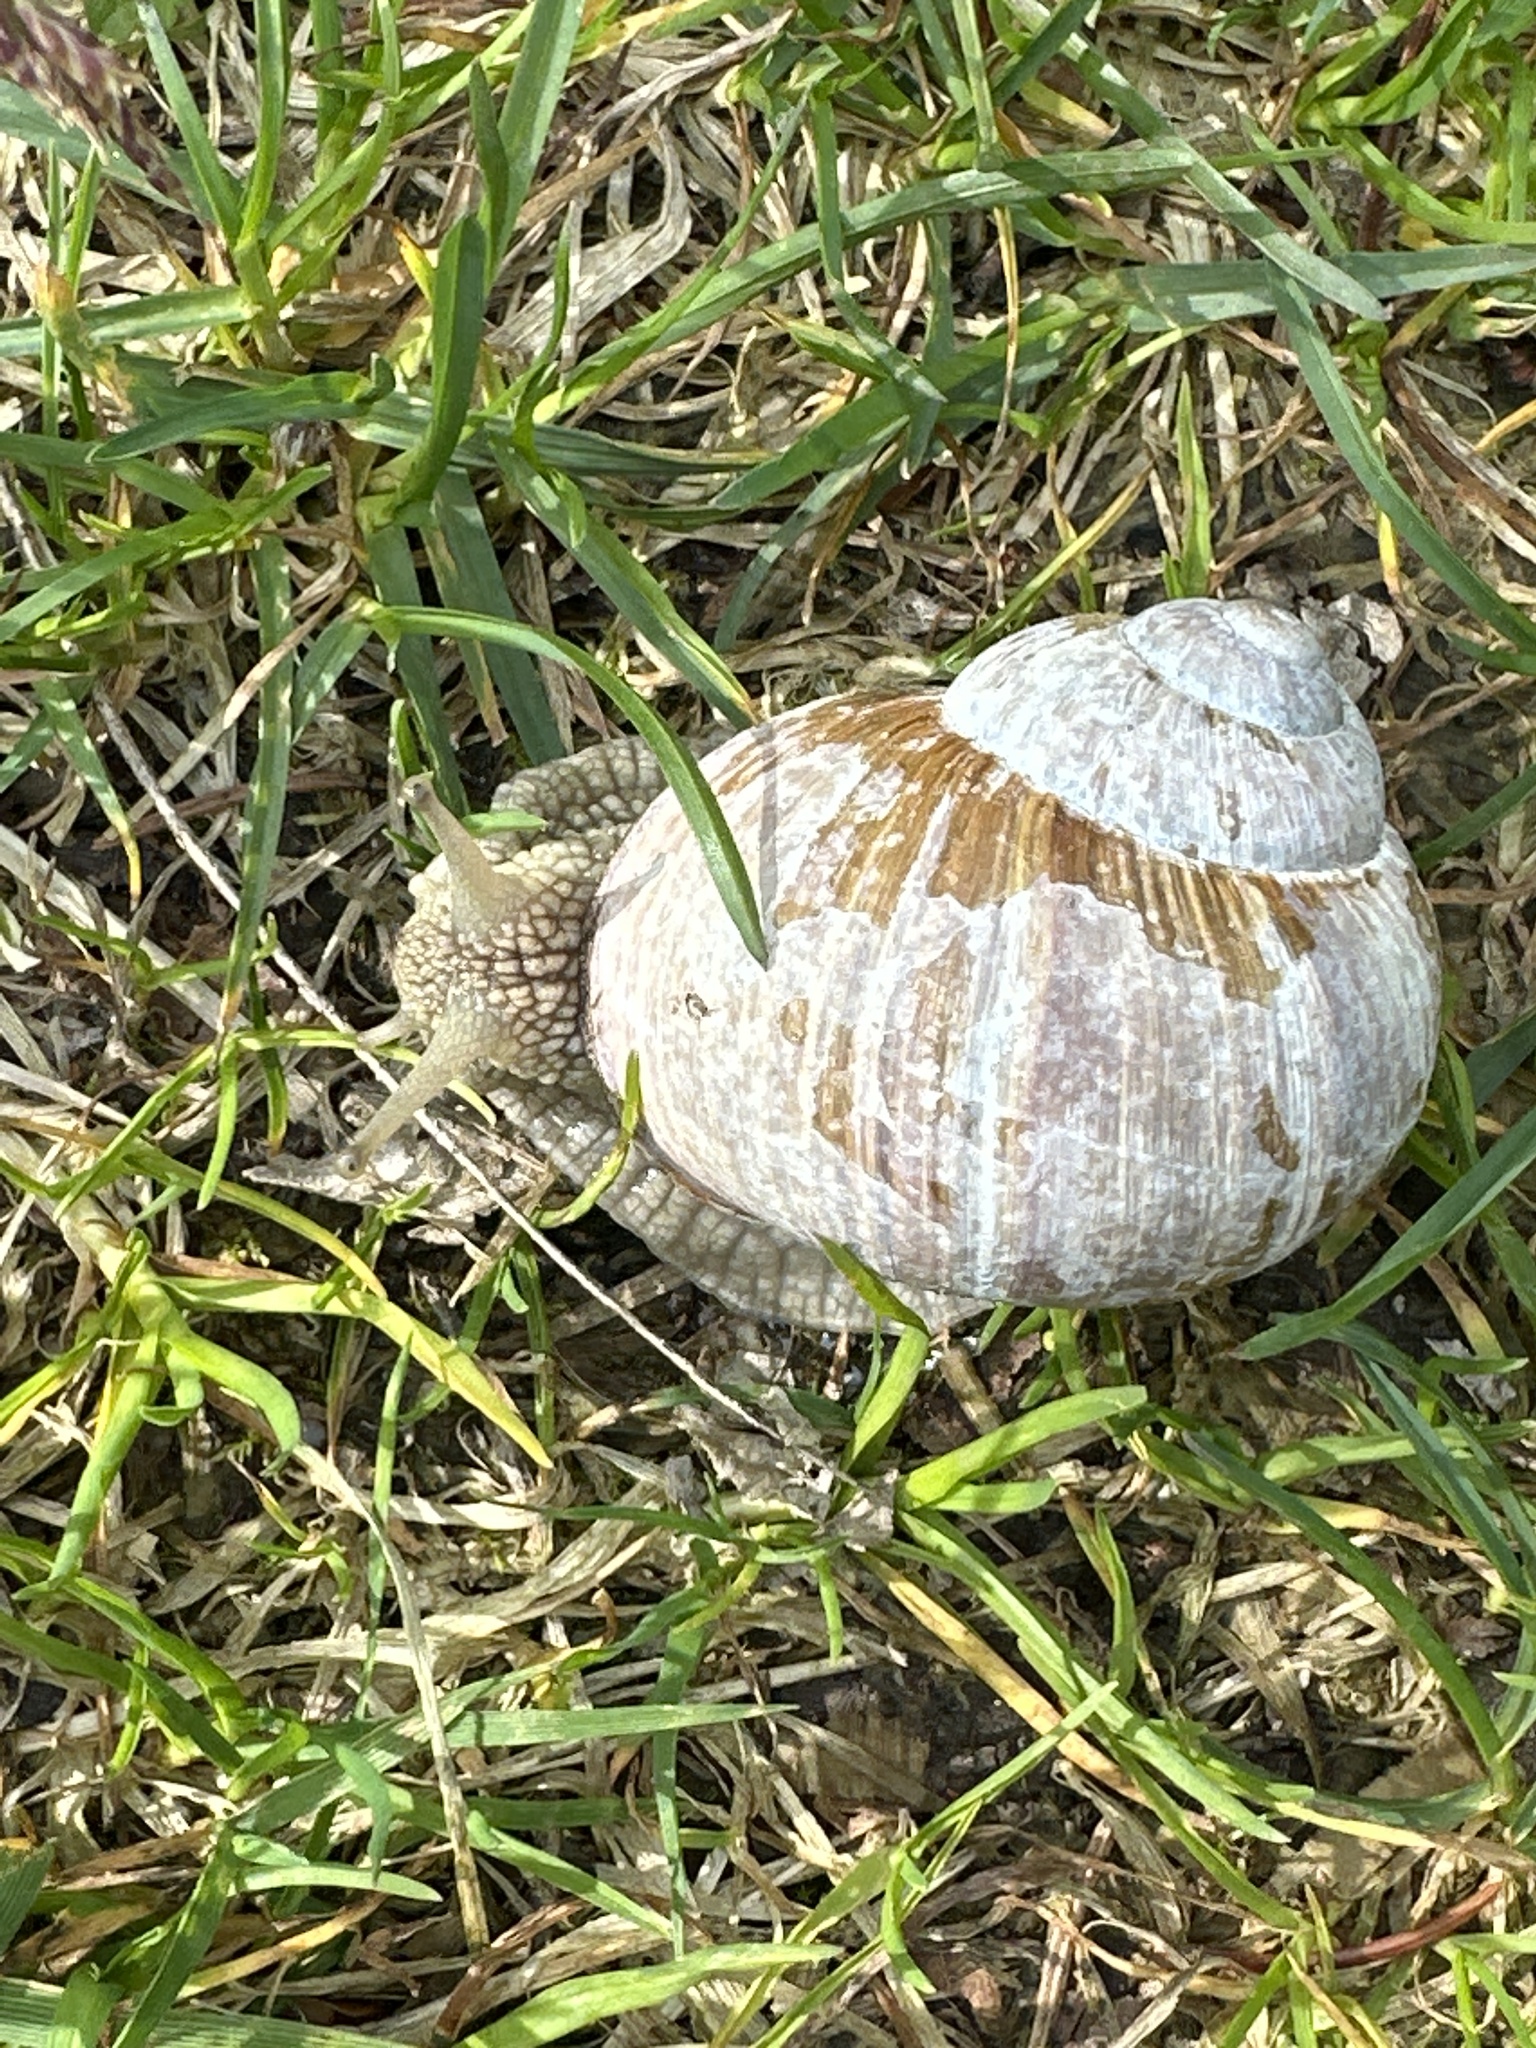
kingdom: Animalia
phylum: Mollusca
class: Gastropoda
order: Stylommatophora
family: Helicidae
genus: Helix
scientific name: Helix pomatia
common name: Roman snail
